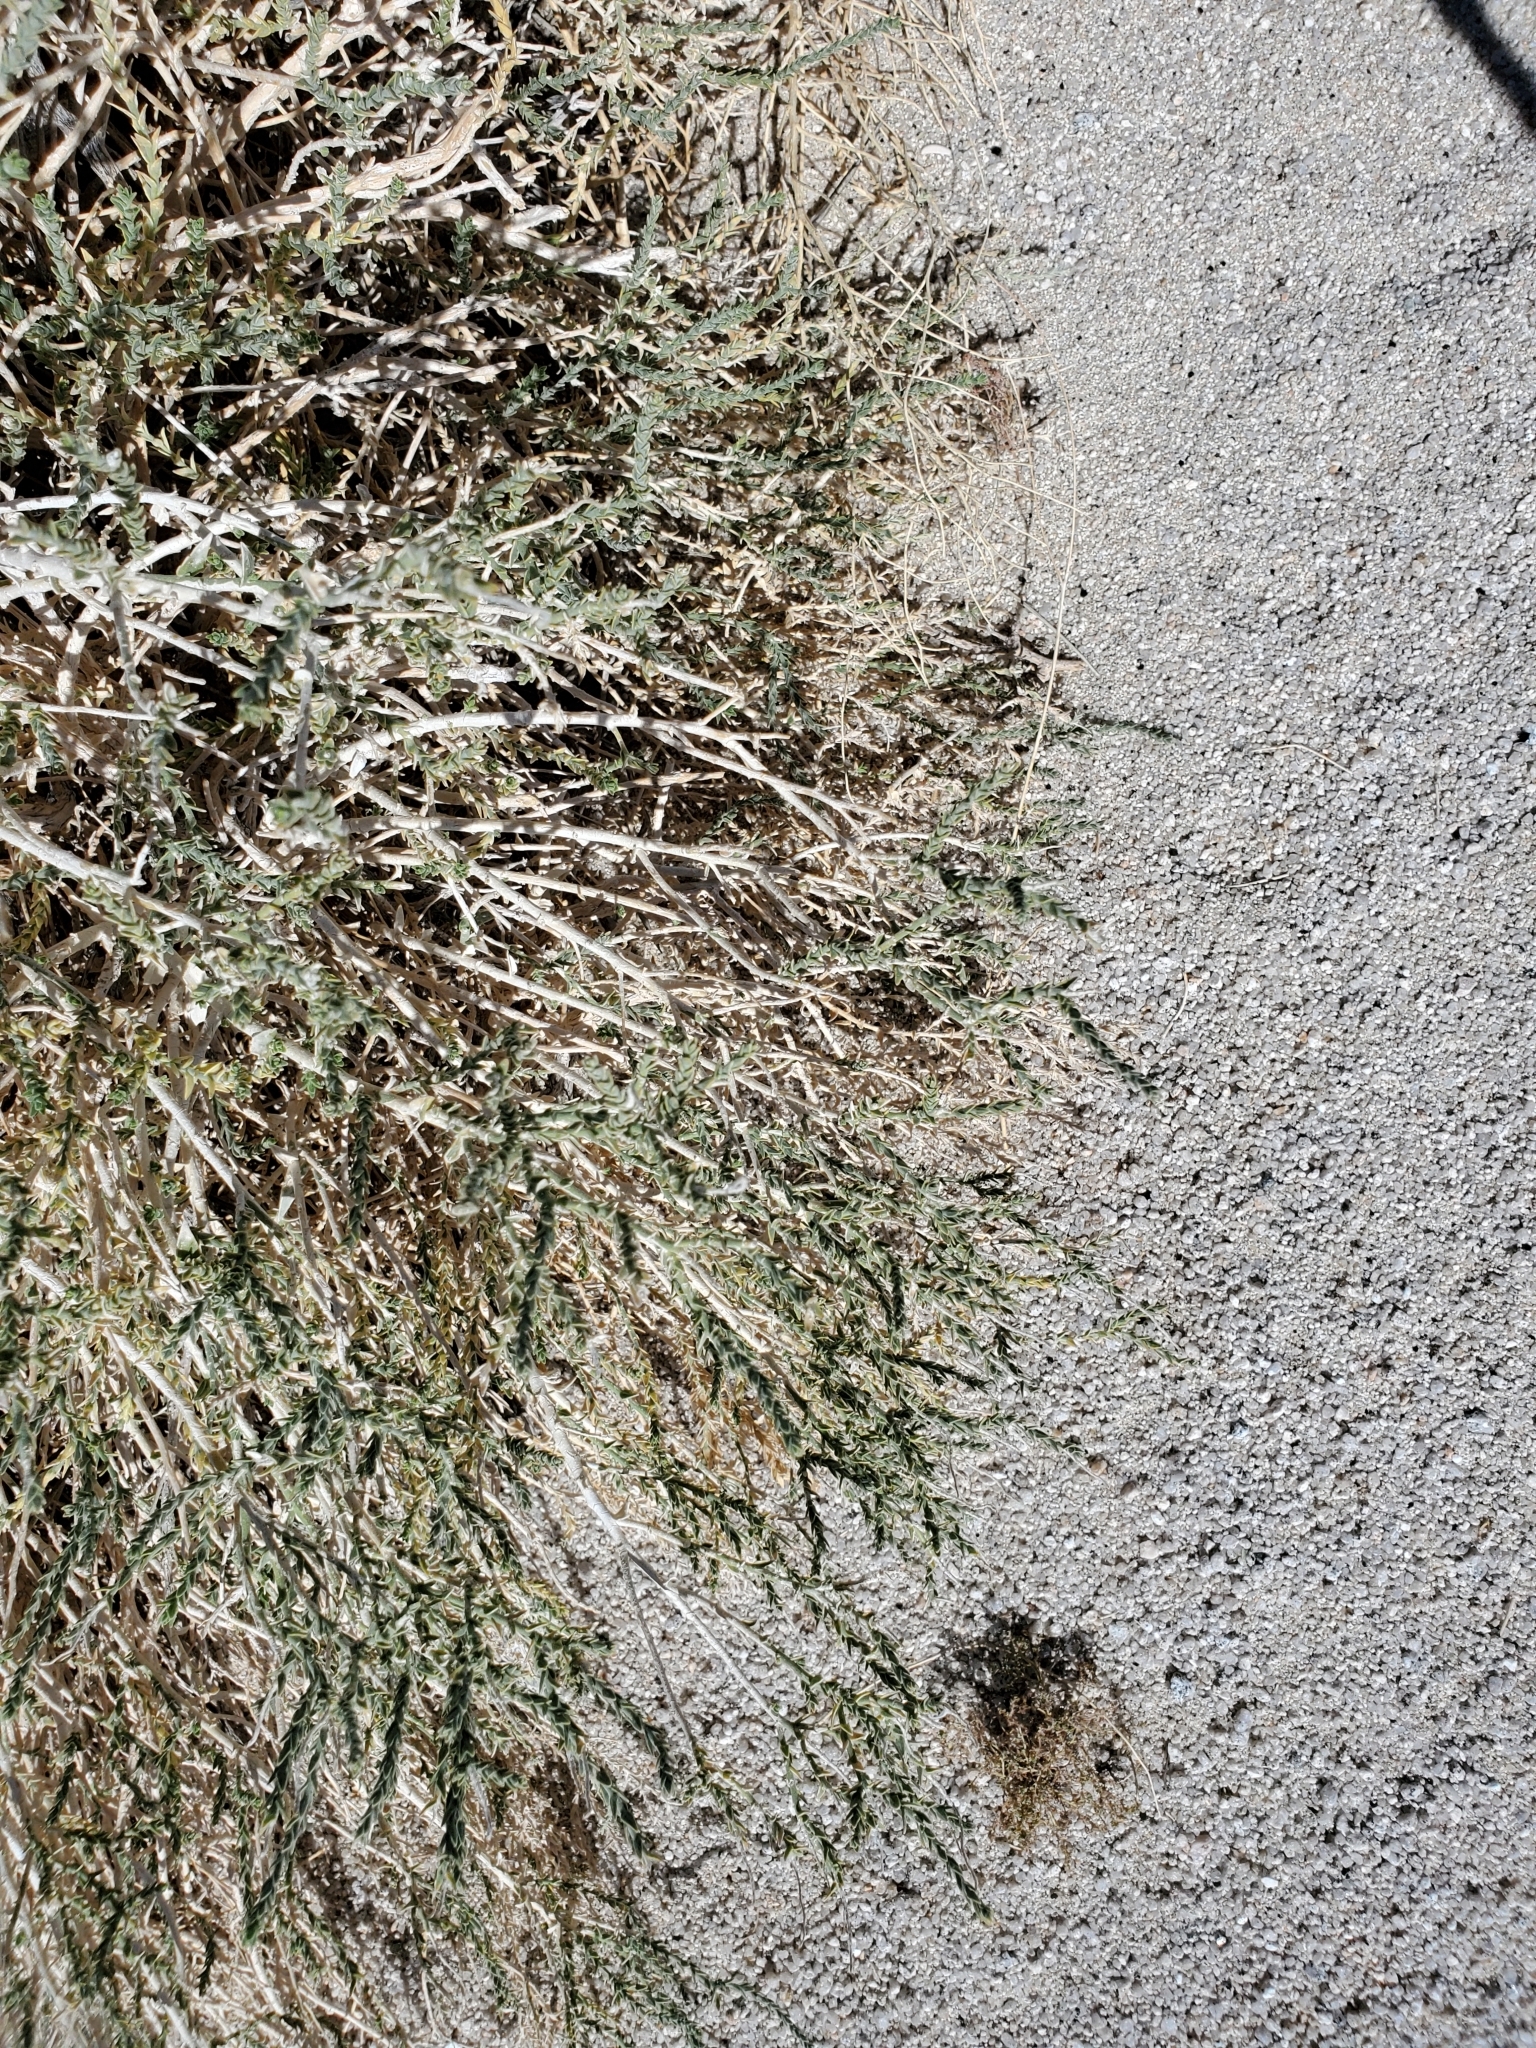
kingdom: Plantae
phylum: Tracheophyta
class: Magnoliopsida
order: Cornales
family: Loasaceae
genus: Petalonyx
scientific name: Petalonyx thurberi
